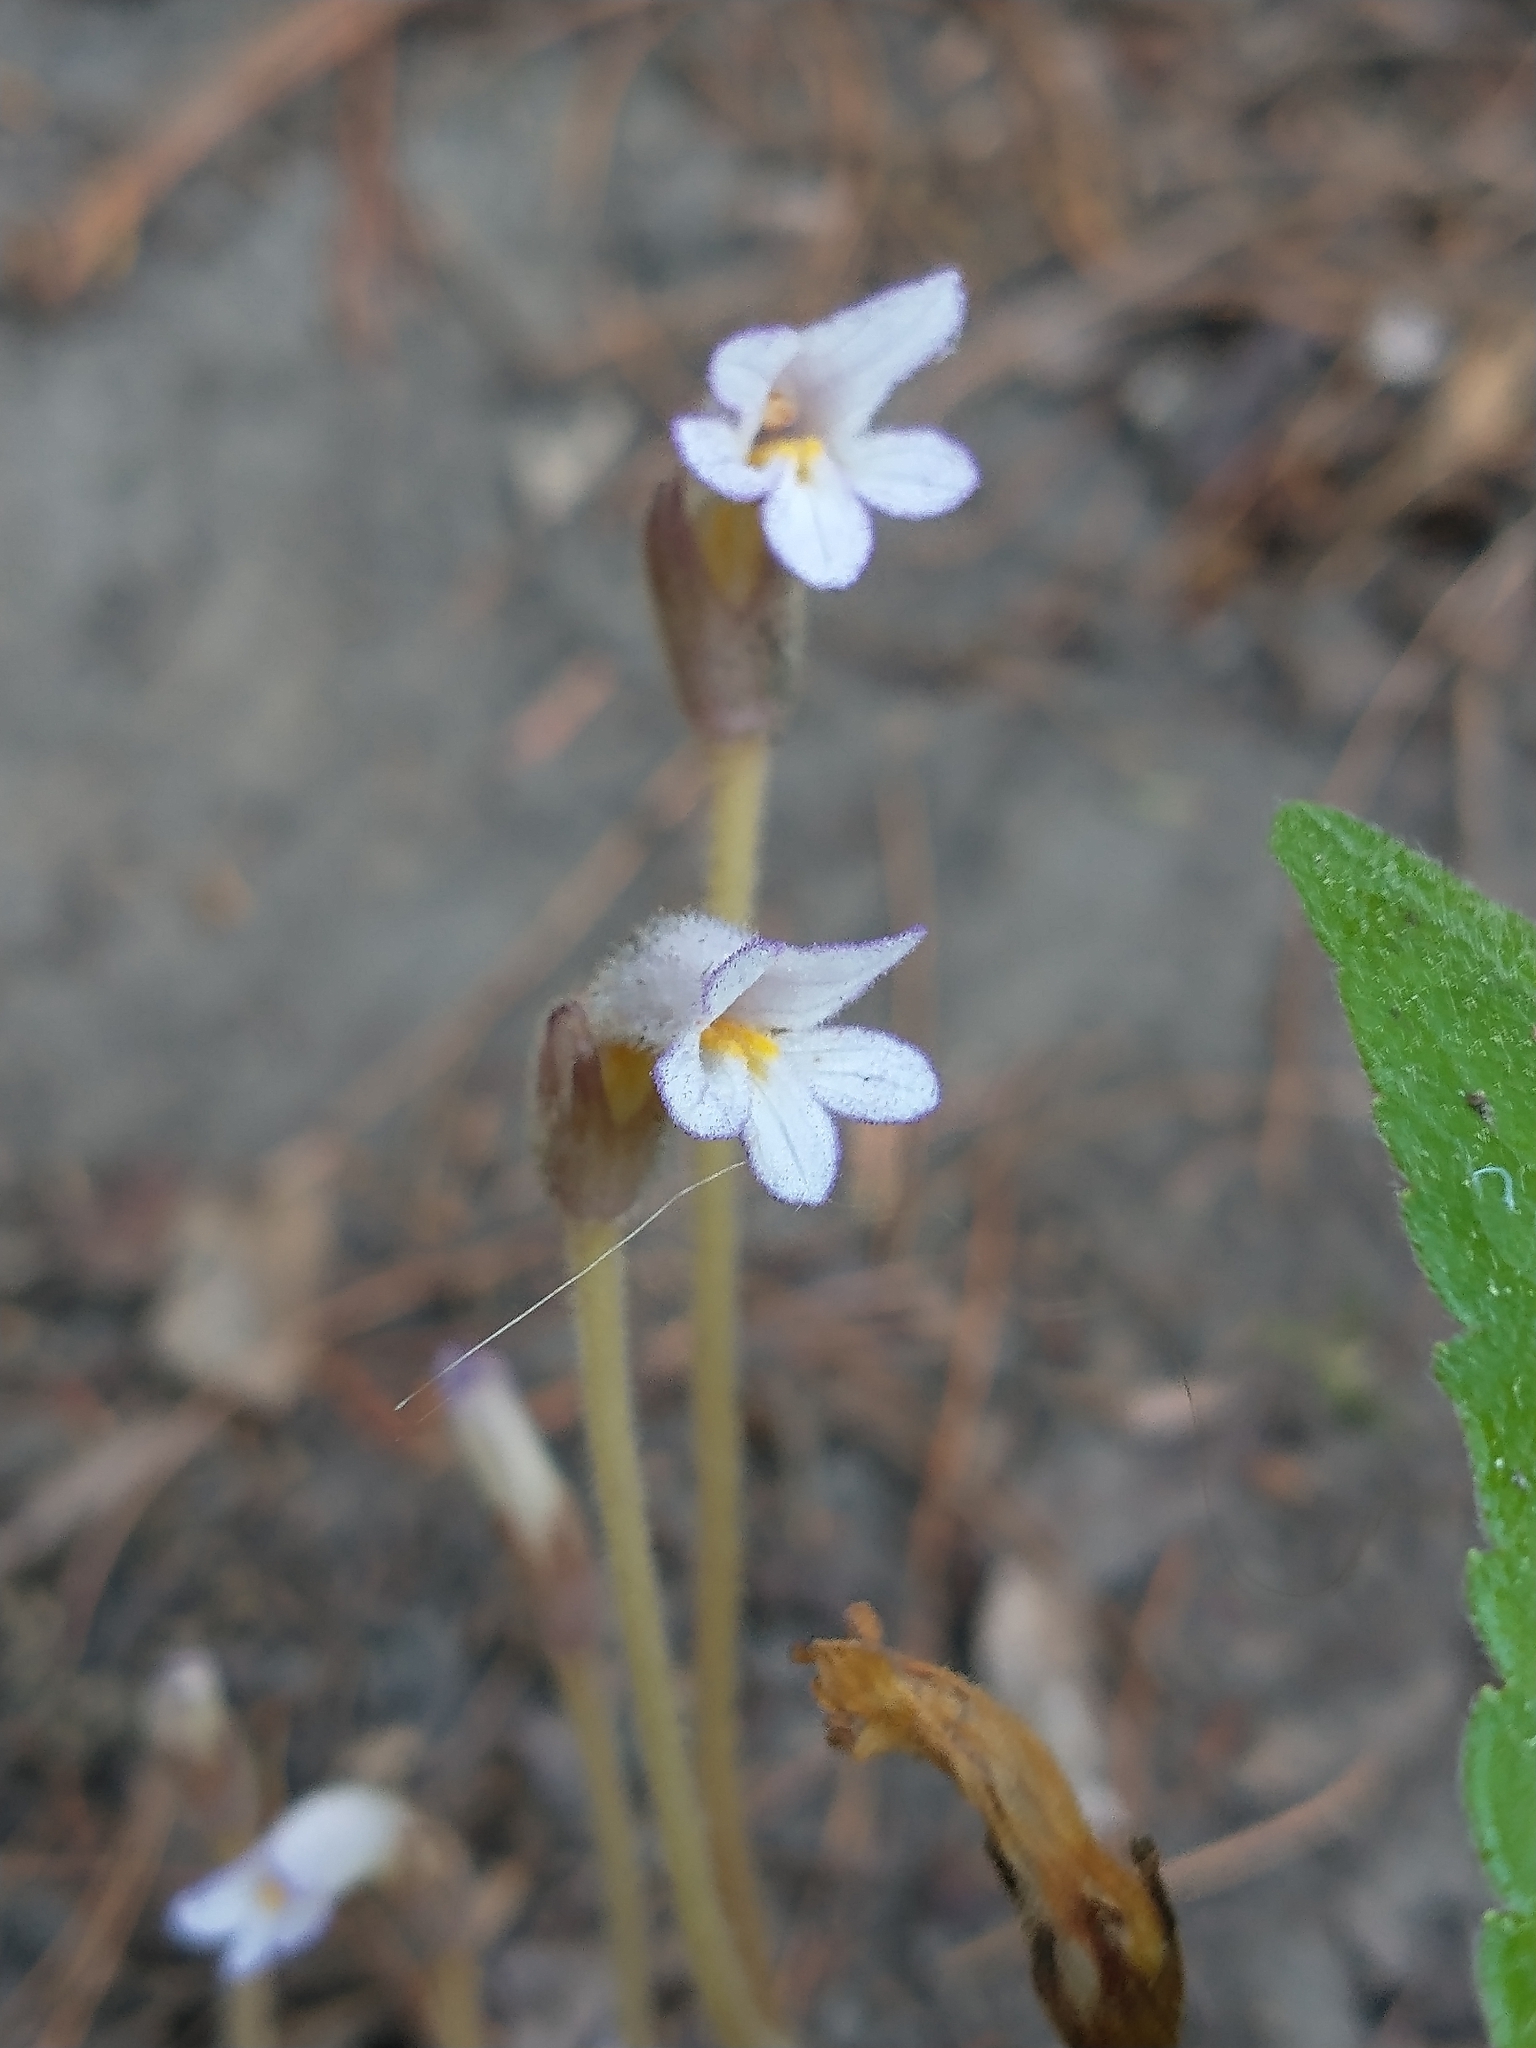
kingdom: Plantae
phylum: Tracheophyta
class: Magnoliopsida
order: Lamiales
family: Orobanchaceae
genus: Aphyllon
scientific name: Aphyllon uniflorum
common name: One-flowered broomrape
